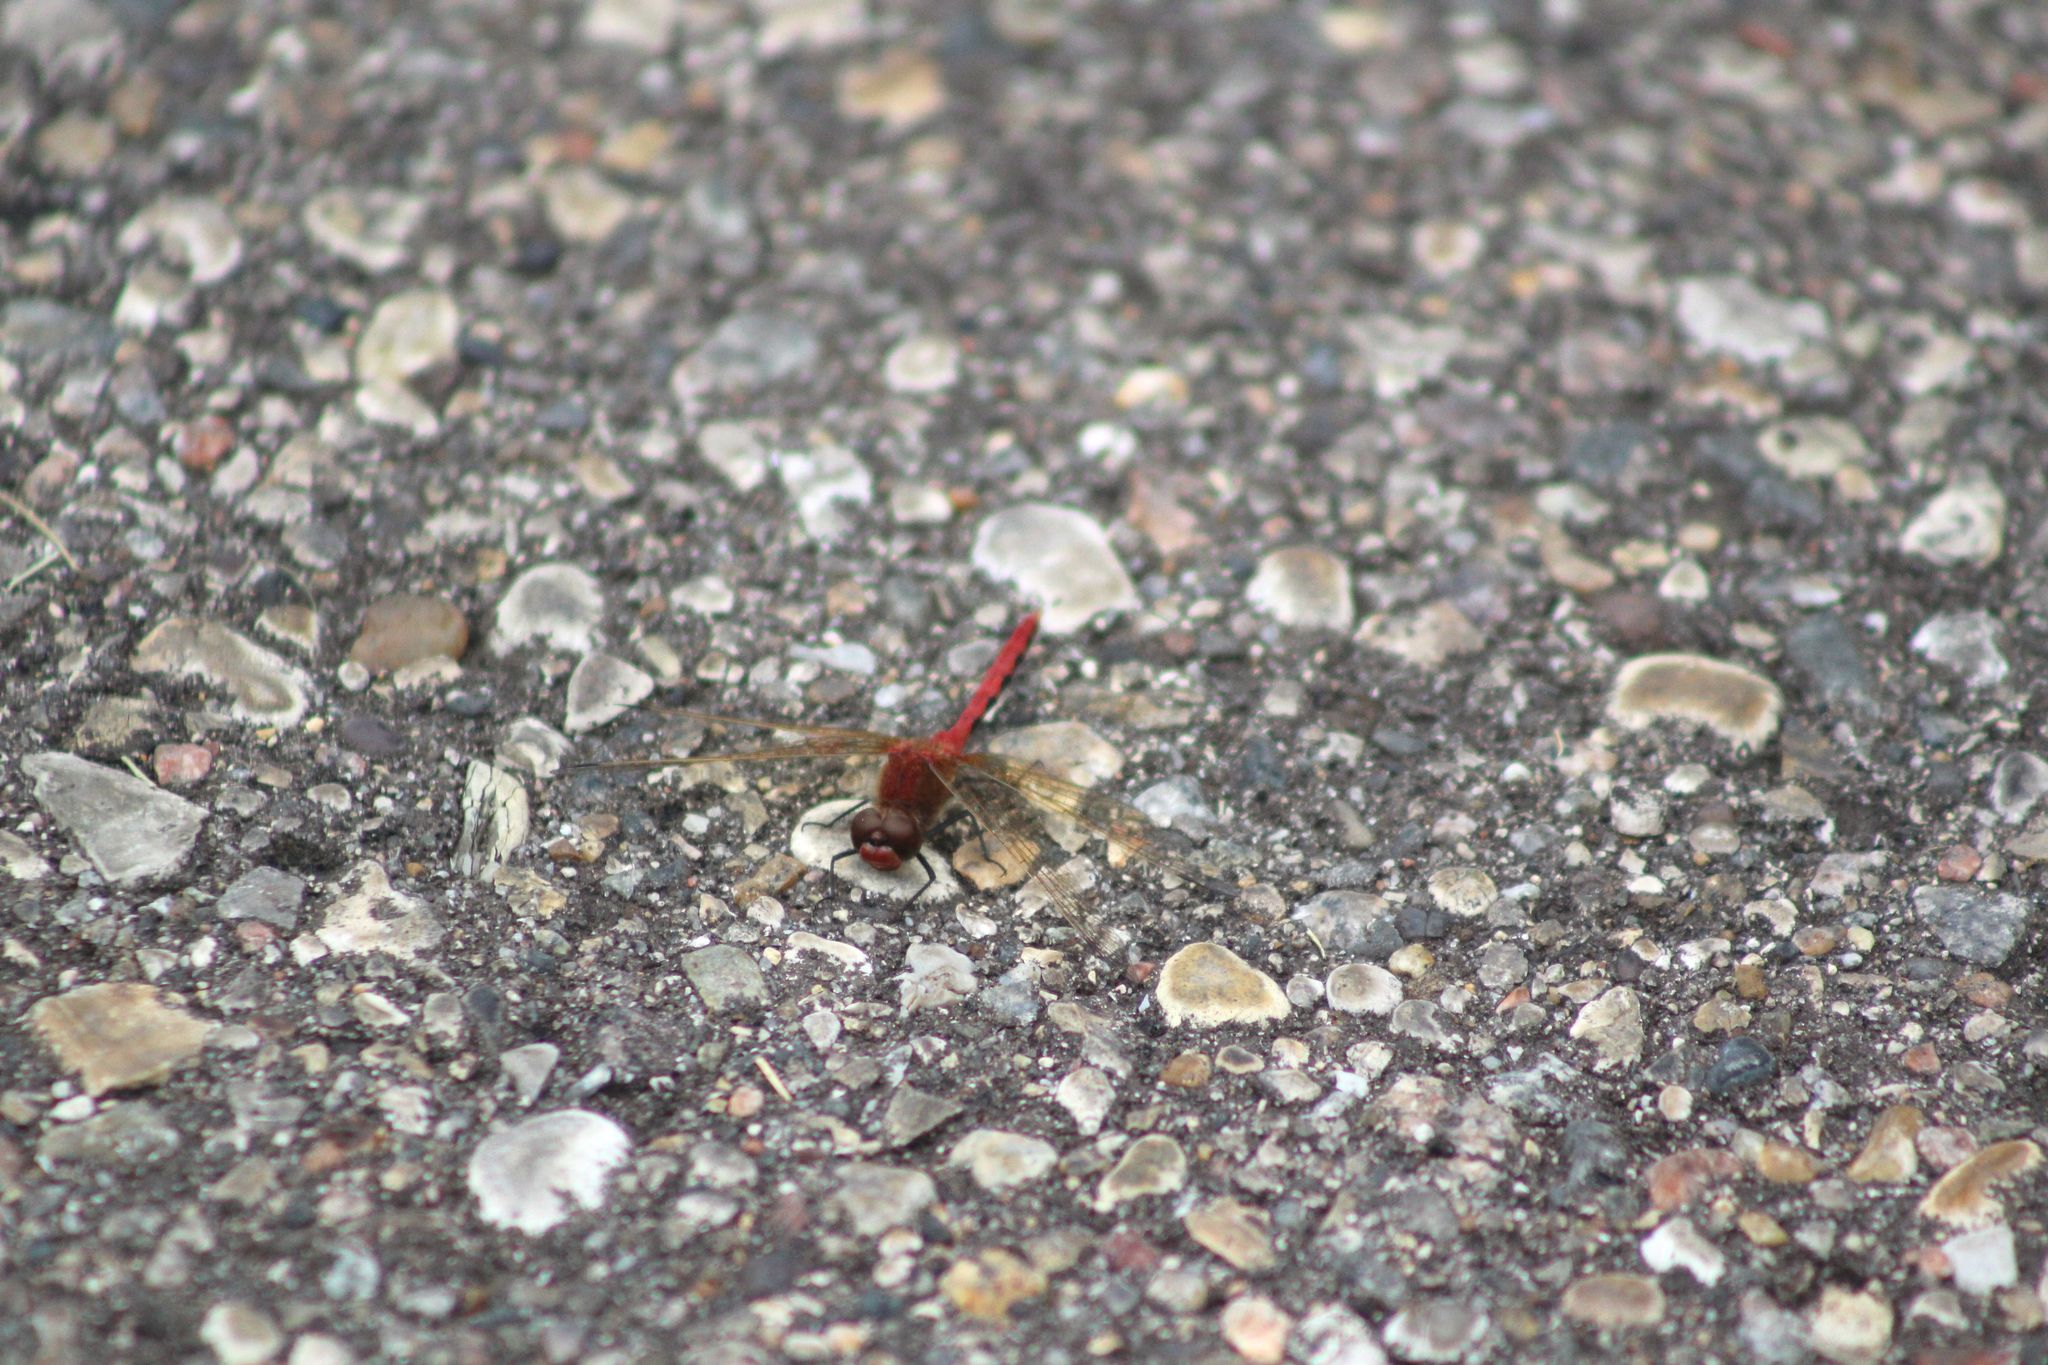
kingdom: Animalia
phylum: Arthropoda
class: Insecta
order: Odonata
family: Libellulidae
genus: Sympetrum
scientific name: Sympetrum internum
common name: Cherry-faced meadowhawk
